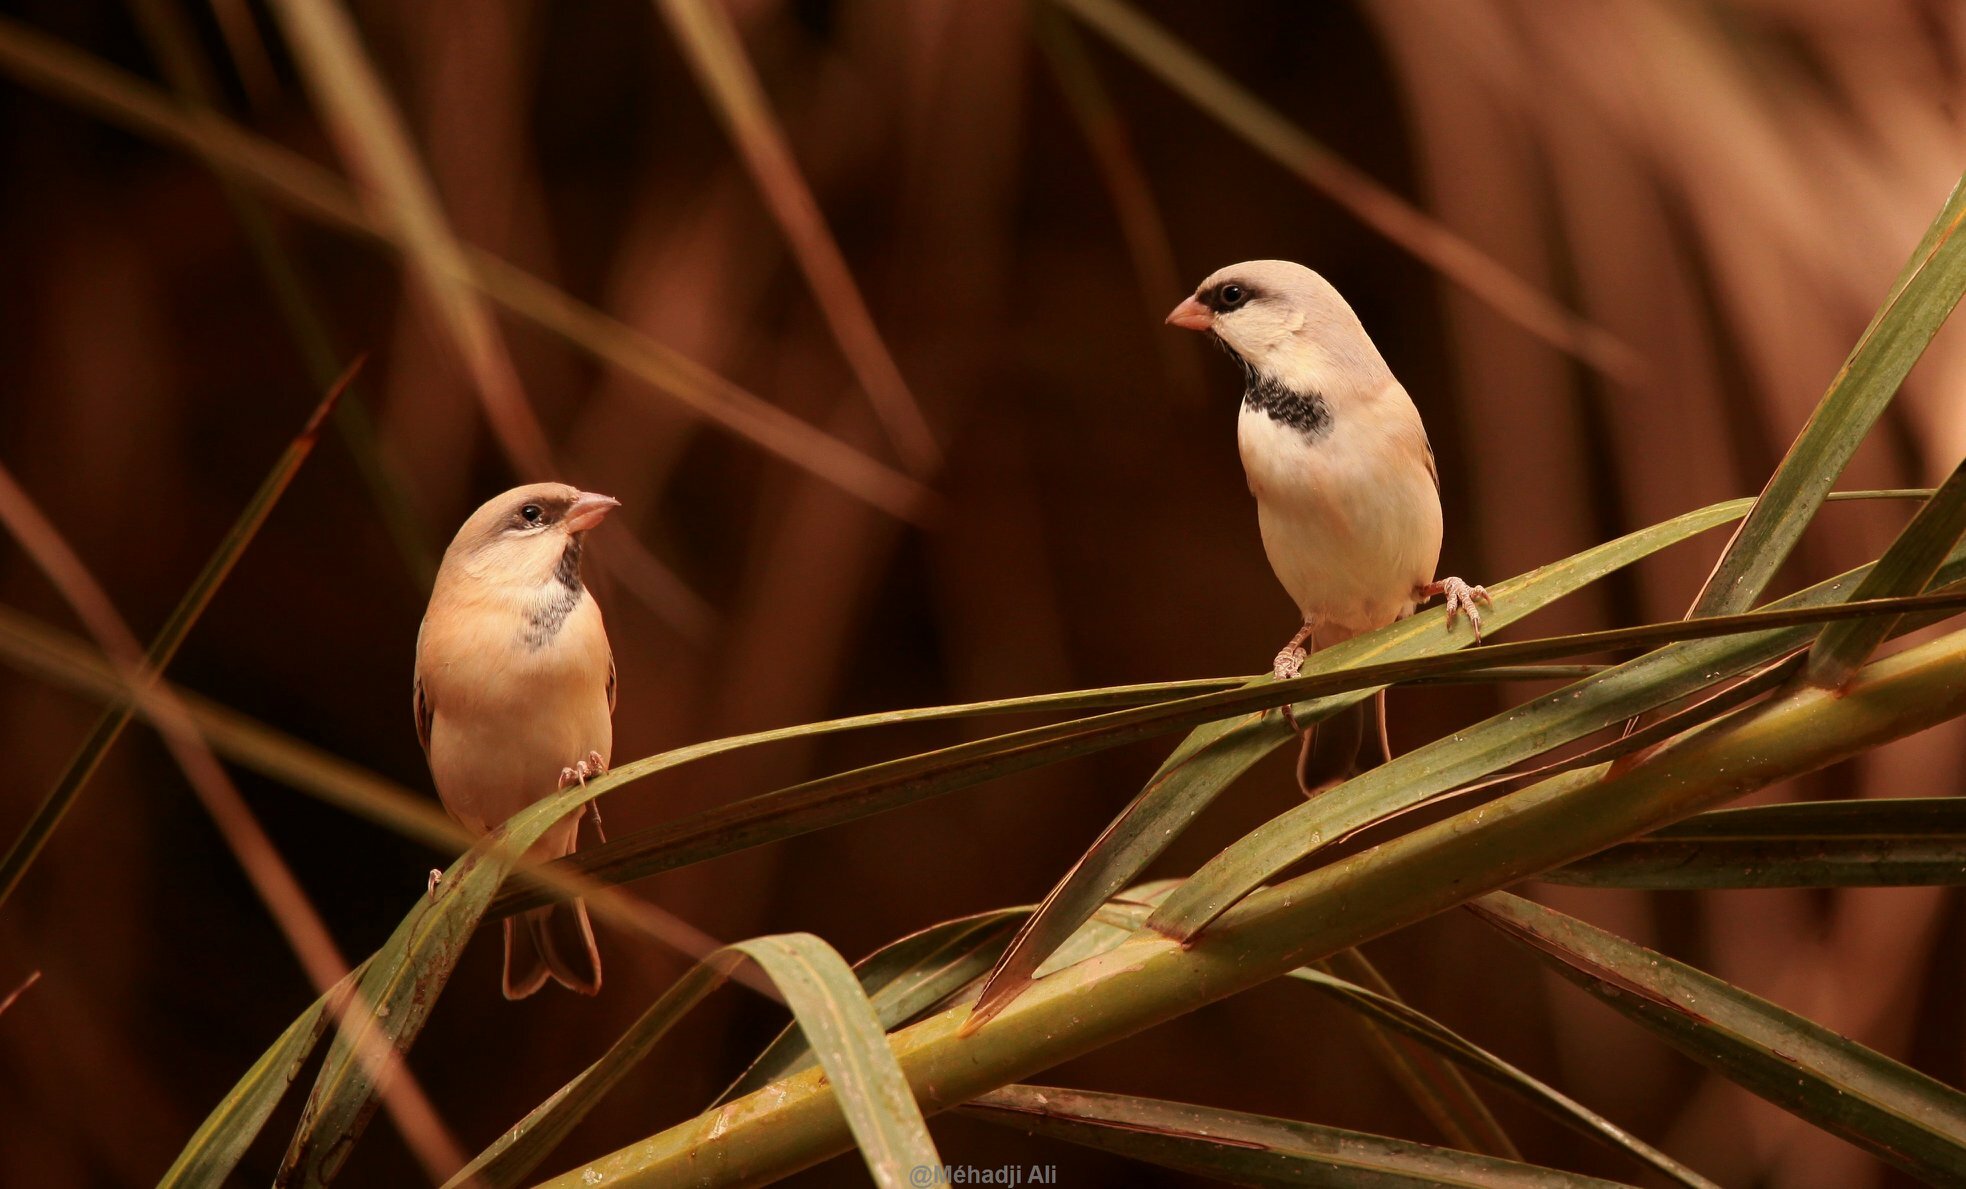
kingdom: Animalia
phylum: Chordata
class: Aves
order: Passeriformes
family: Passeridae
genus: Passer
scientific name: Passer simplex
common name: Desert sparrow
